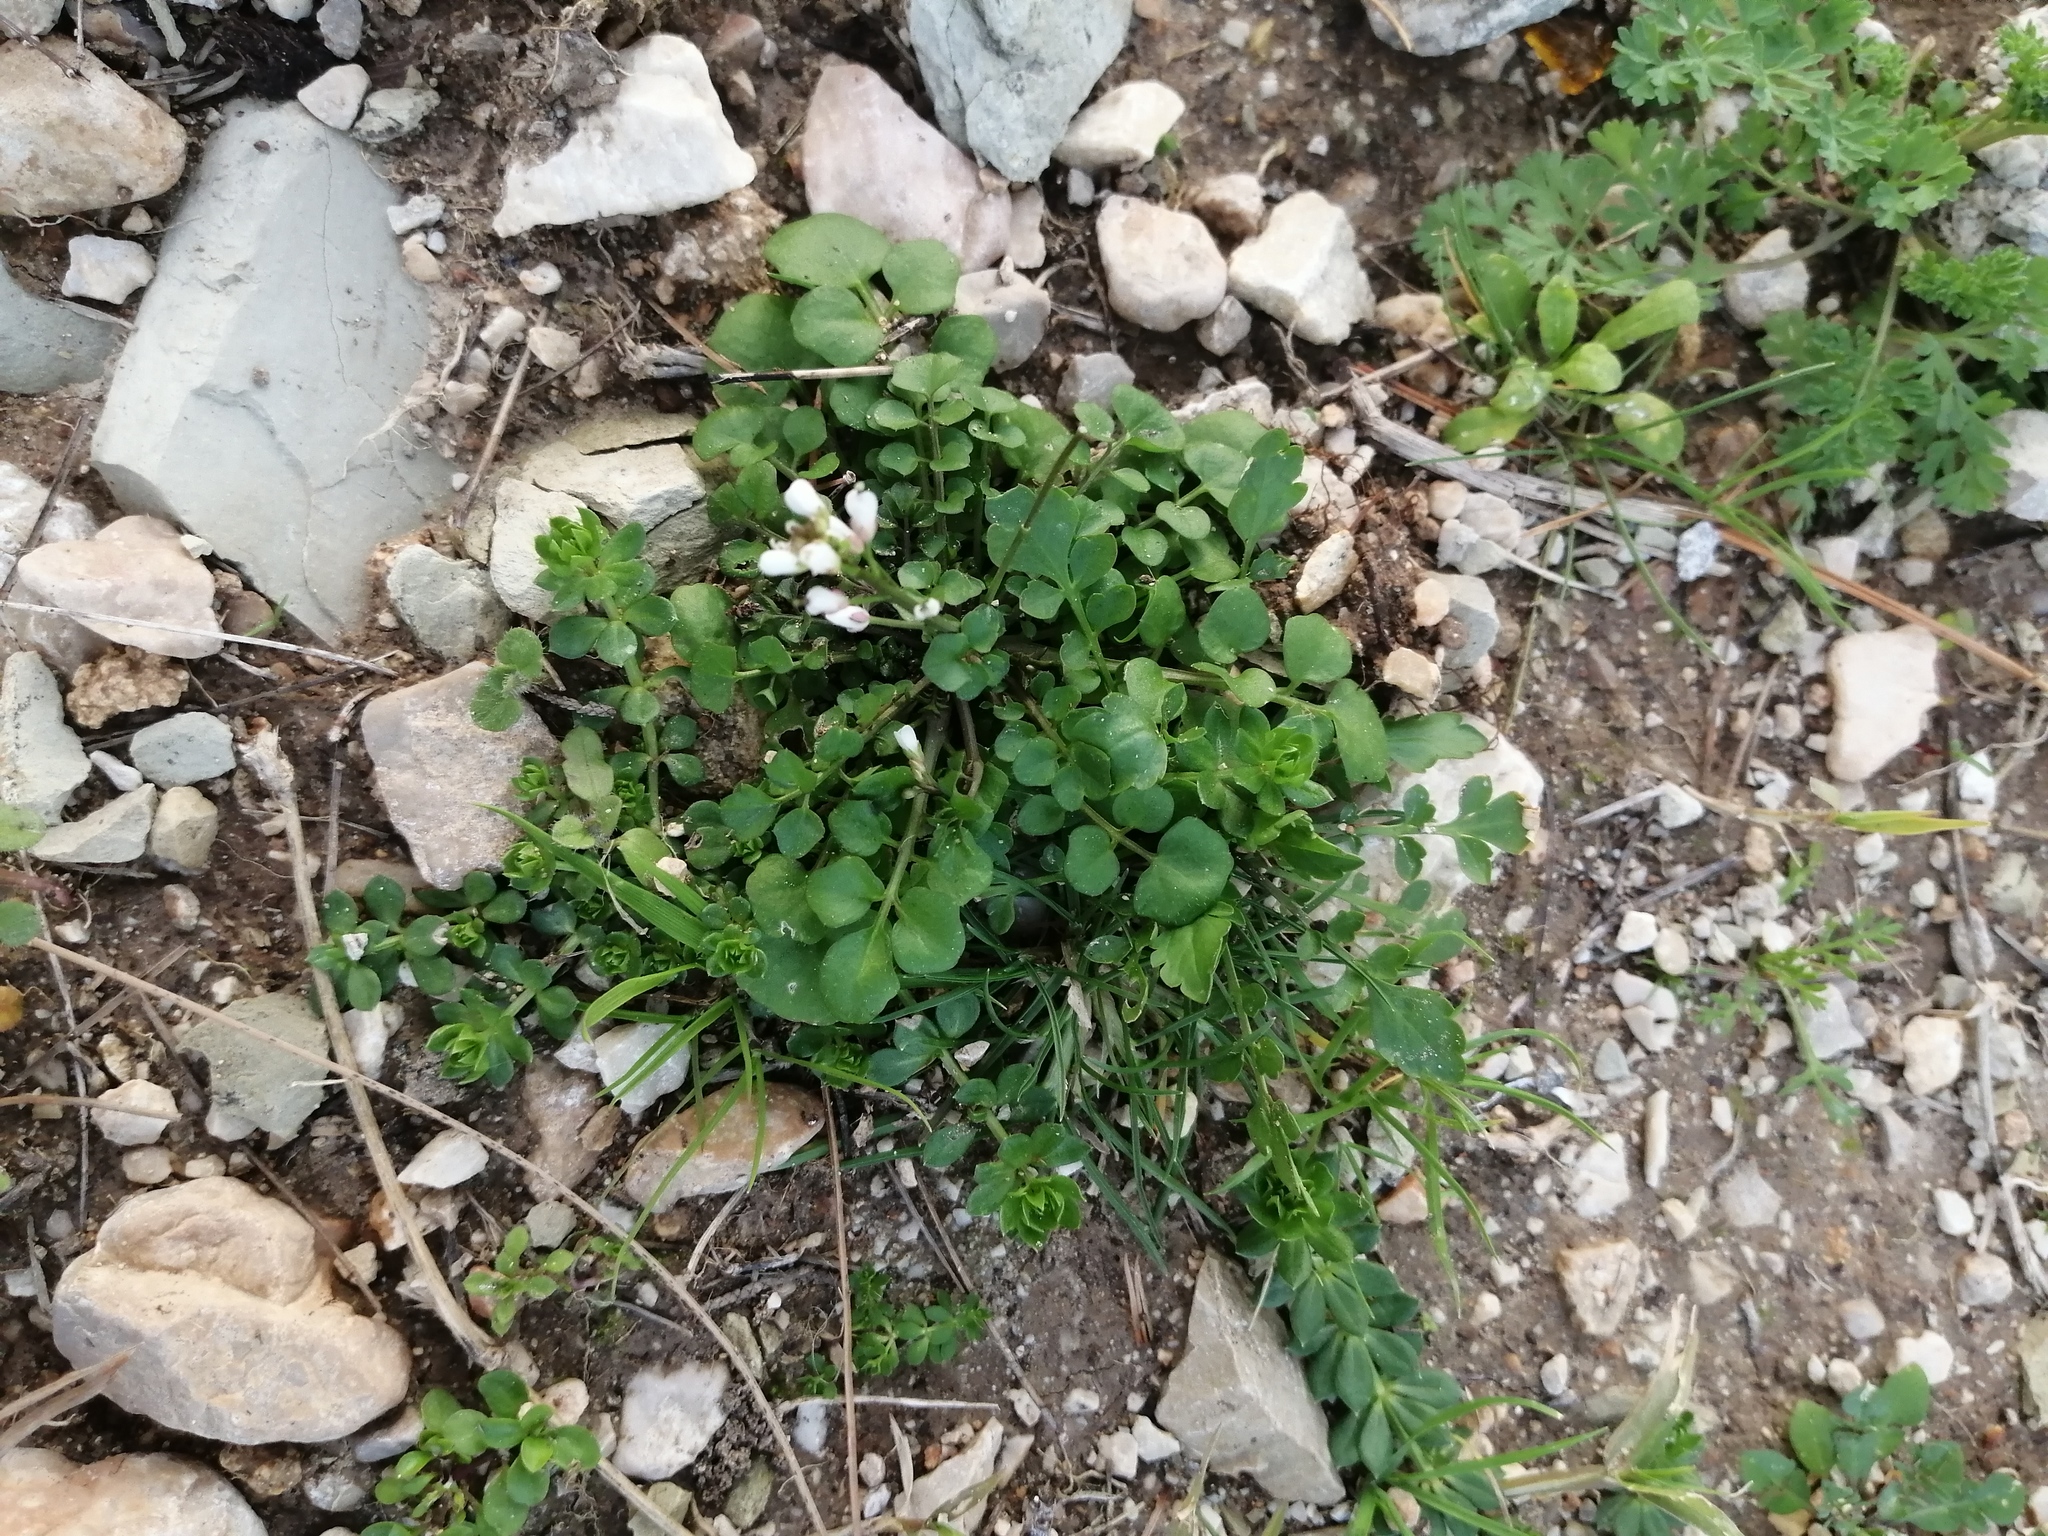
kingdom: Plantae
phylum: Tracheophyta
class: Magnoliopsida
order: Brassicales
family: Brassicaceae
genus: Cardamine
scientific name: Cardamine hirsuta
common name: Hairy bittercress
